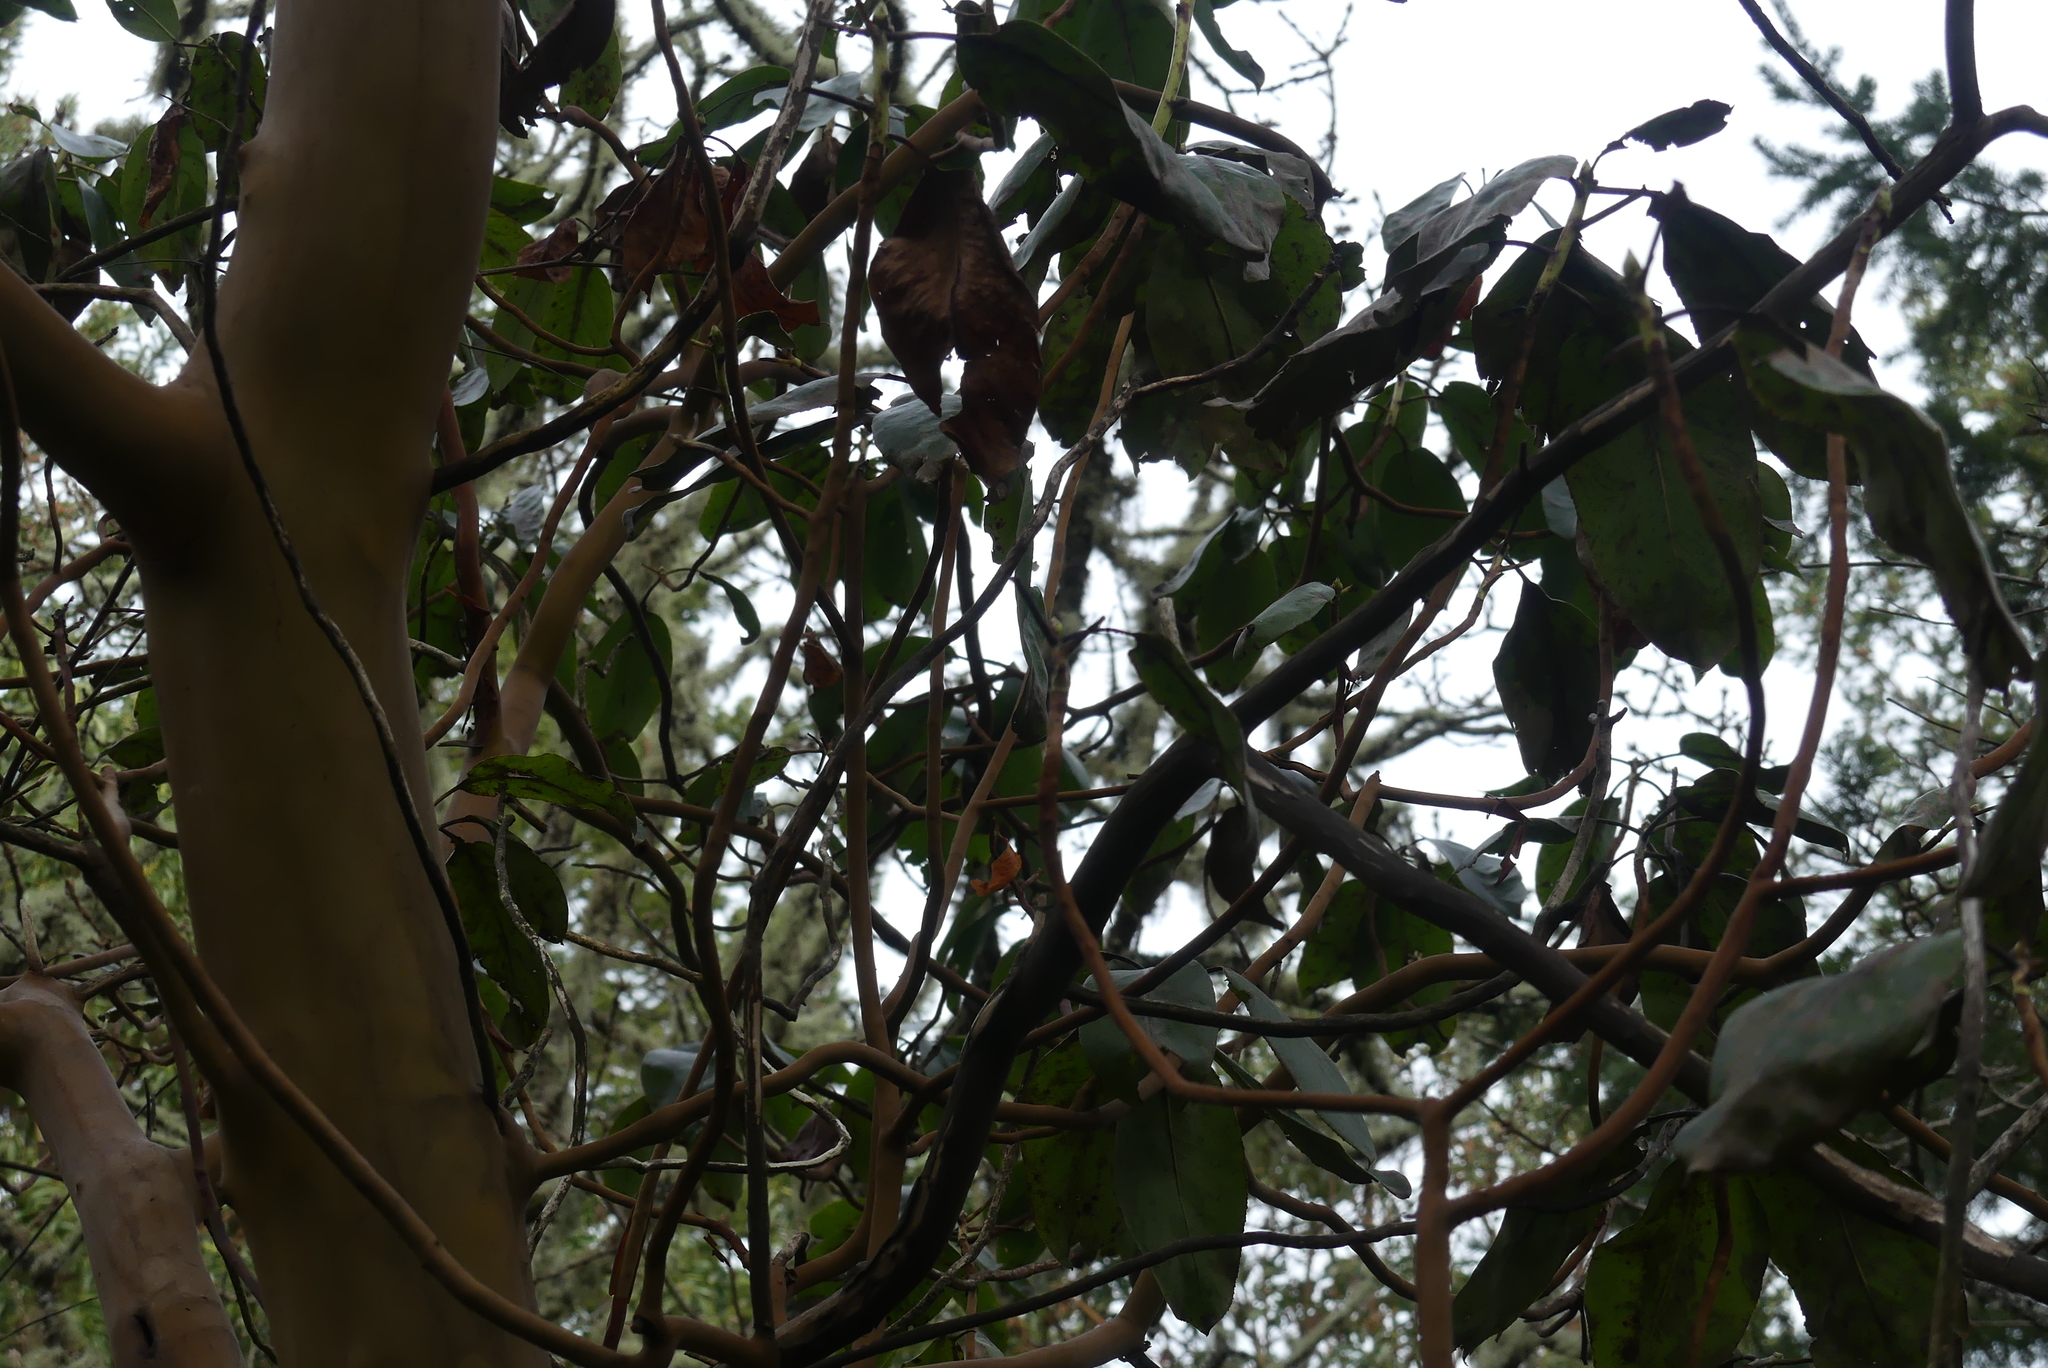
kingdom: Plantae
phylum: Tracheophyta
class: Magnoliopsida
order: Ericales
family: Ericaceae
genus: Arbutus
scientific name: Arbutus menziesii
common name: Pacific madrone
